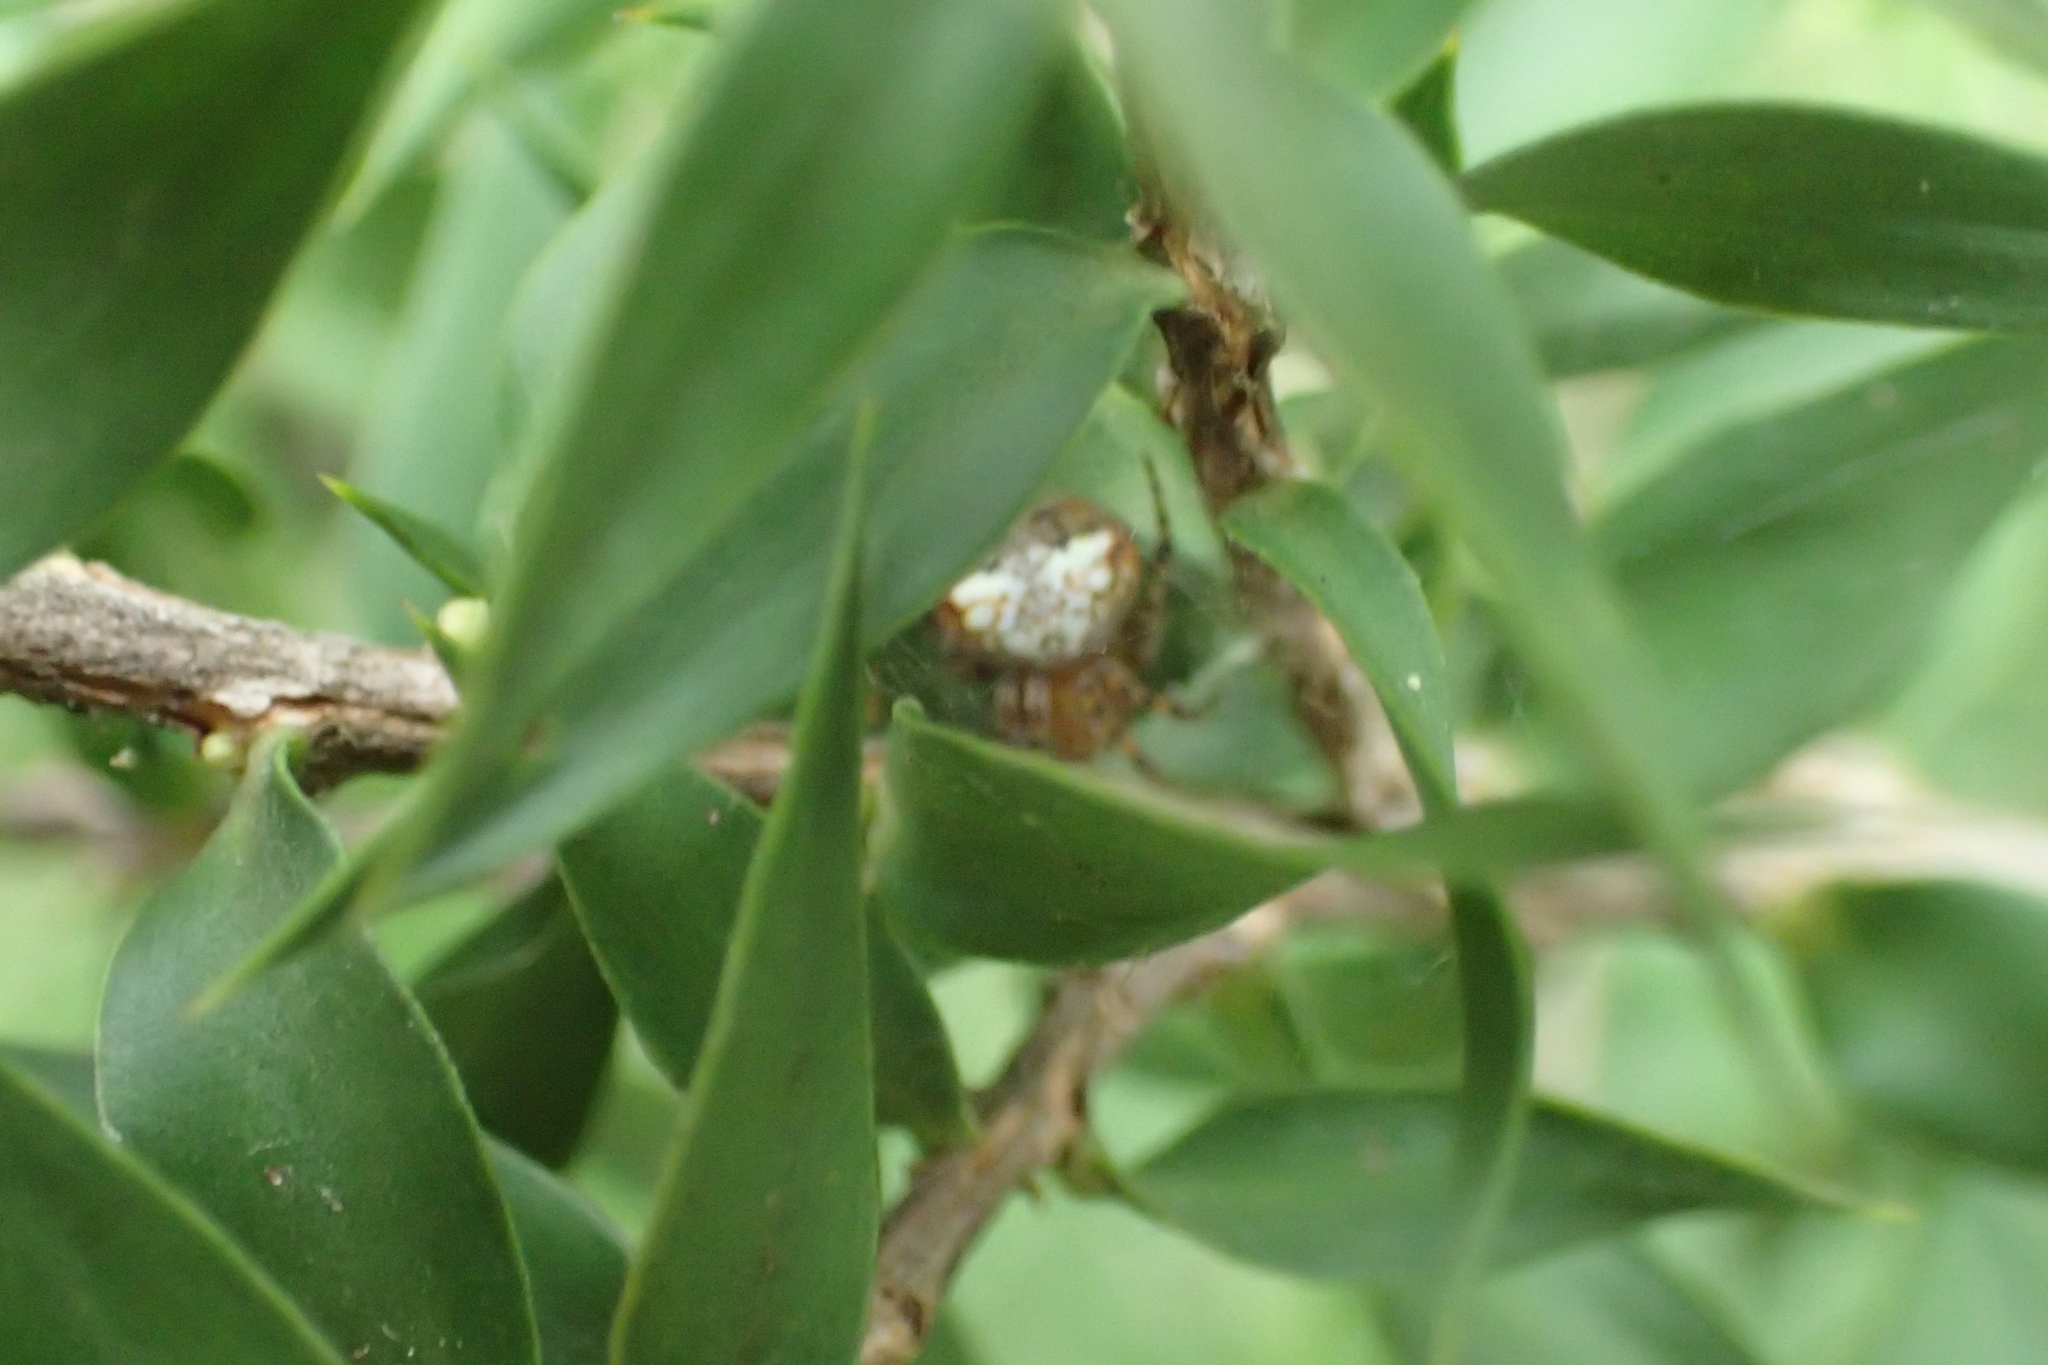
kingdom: Animalia
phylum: Arthropoda
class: Arachnida
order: Araneae
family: Araneidae
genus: Araneus
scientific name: Araneus albotriangulus
